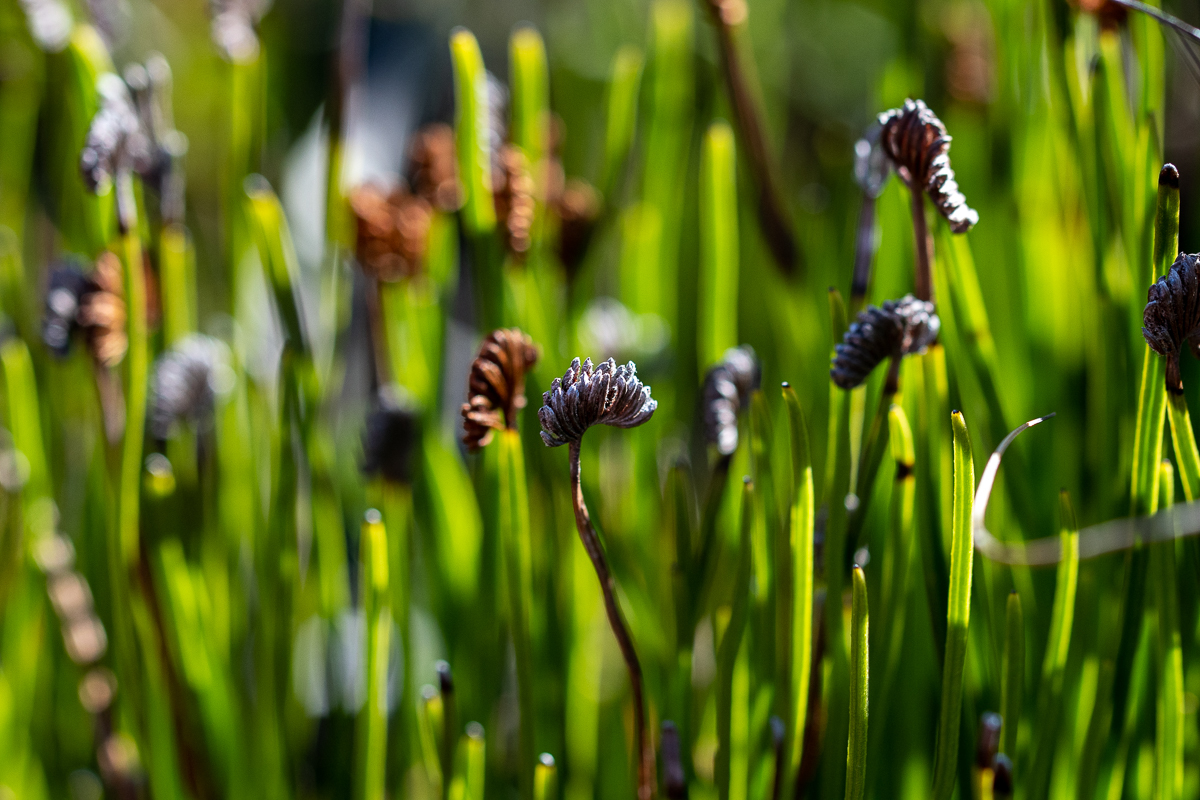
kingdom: Plantae
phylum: Tracheophyta
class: Polypodiopsida
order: Schizaeales
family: Schizaeaceae
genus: Schizaea
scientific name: Schizaea pectinata
